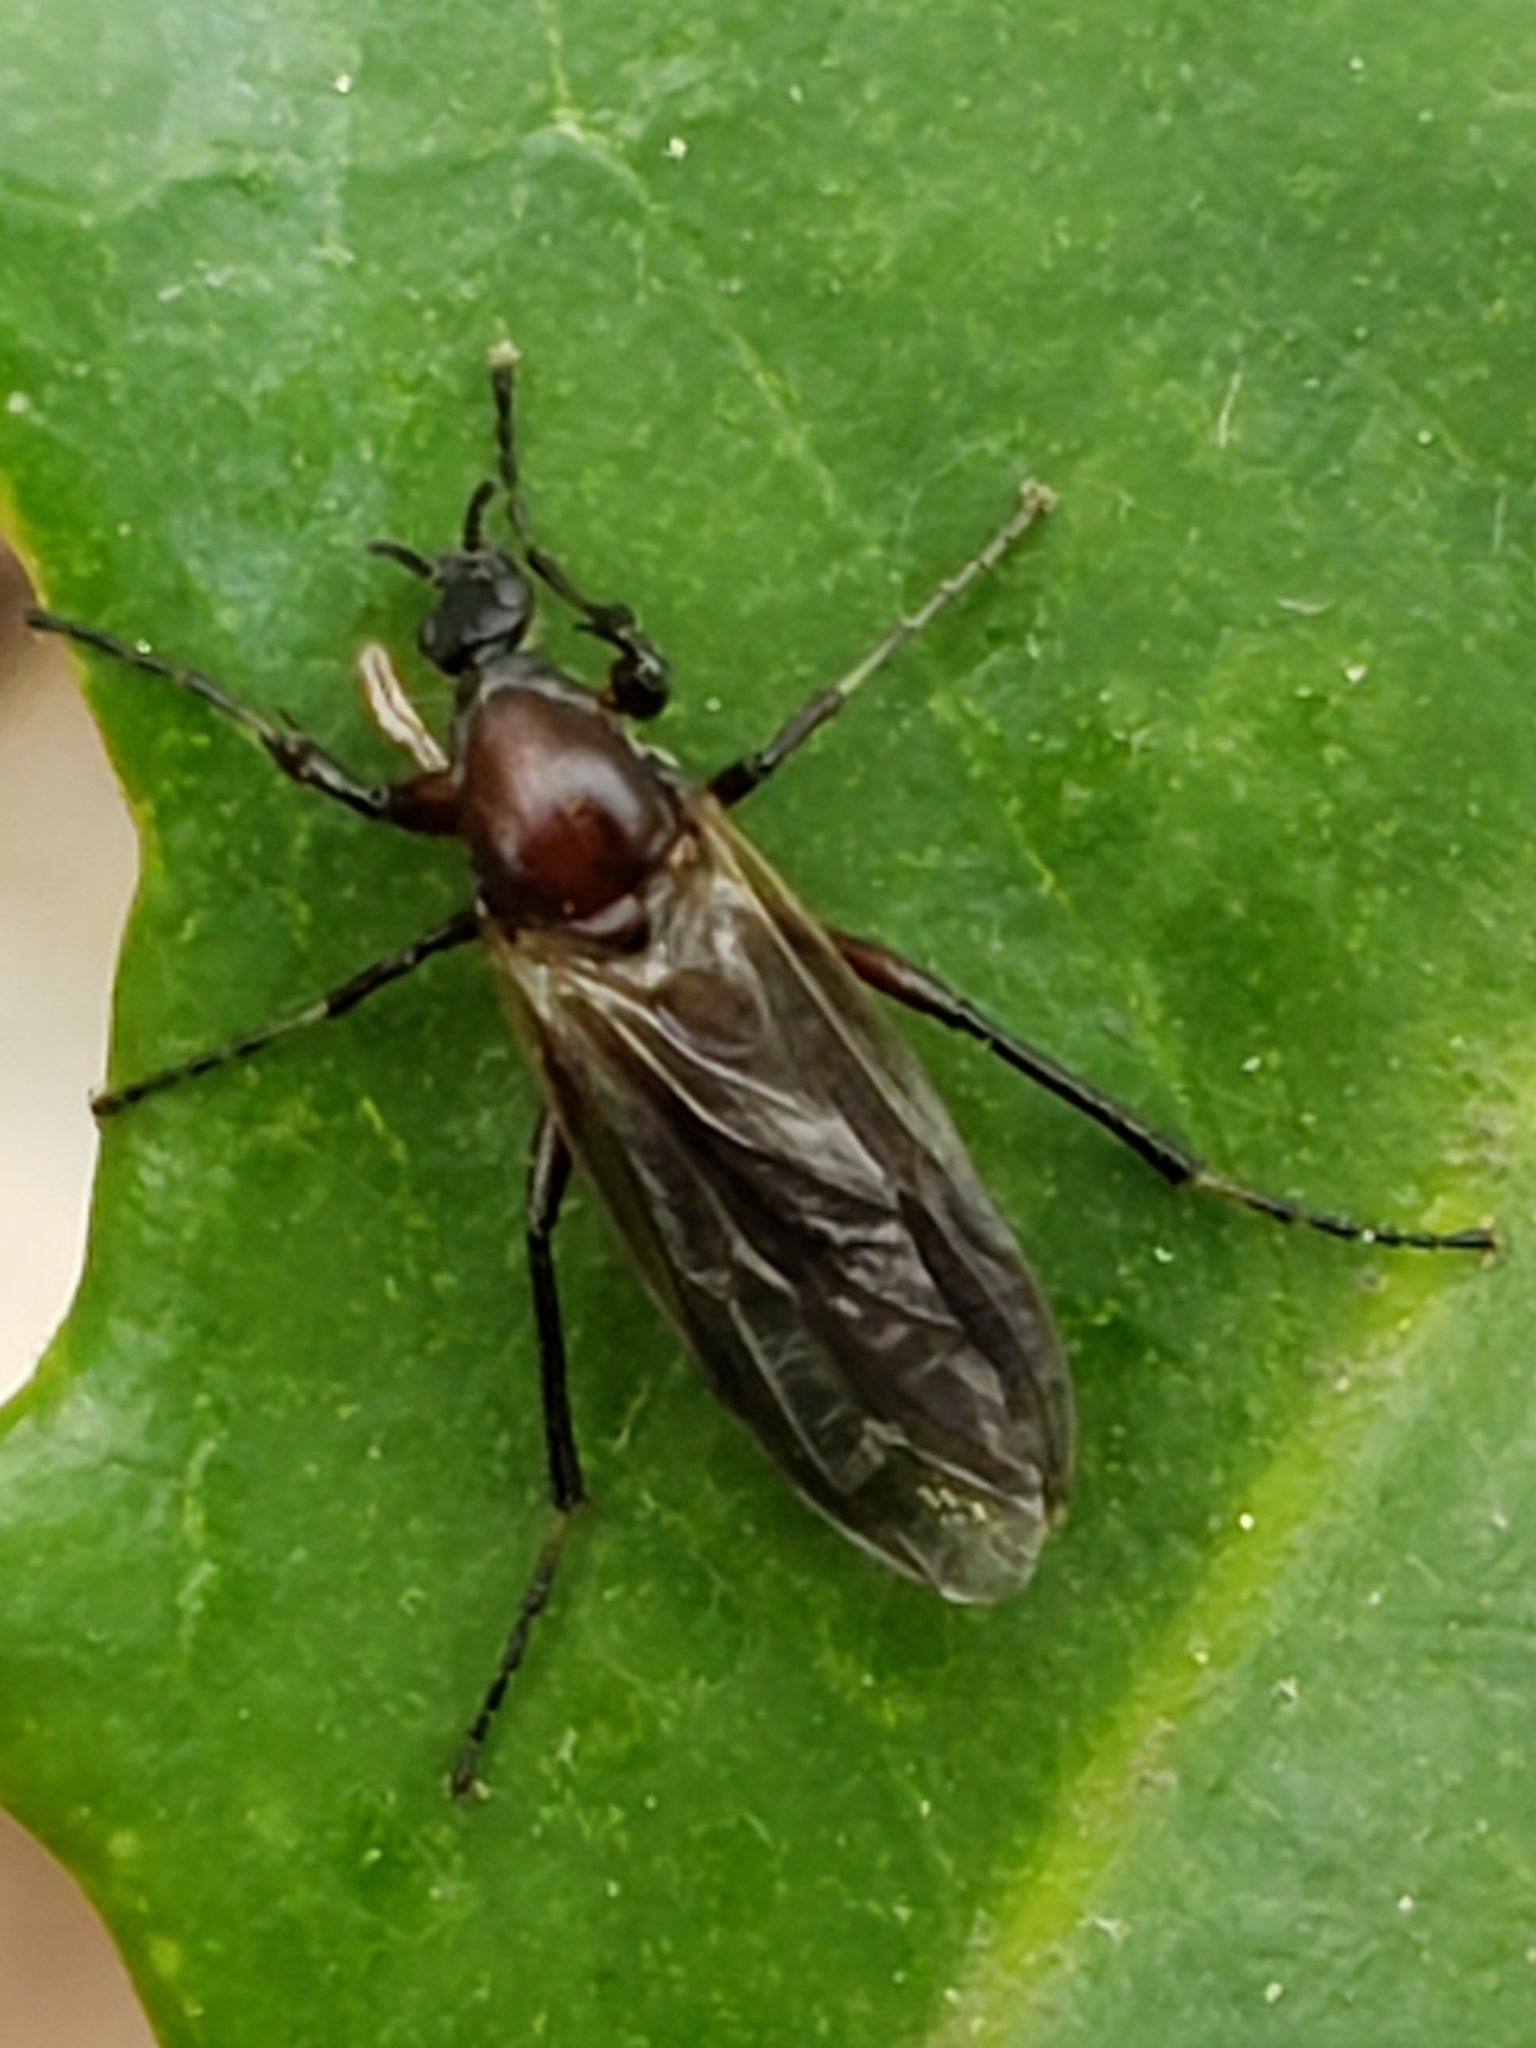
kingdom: Animalia
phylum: Arthropoda
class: Insecta
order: Diptera
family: Bibionidae
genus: Bibio
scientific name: Bibio articulatus
